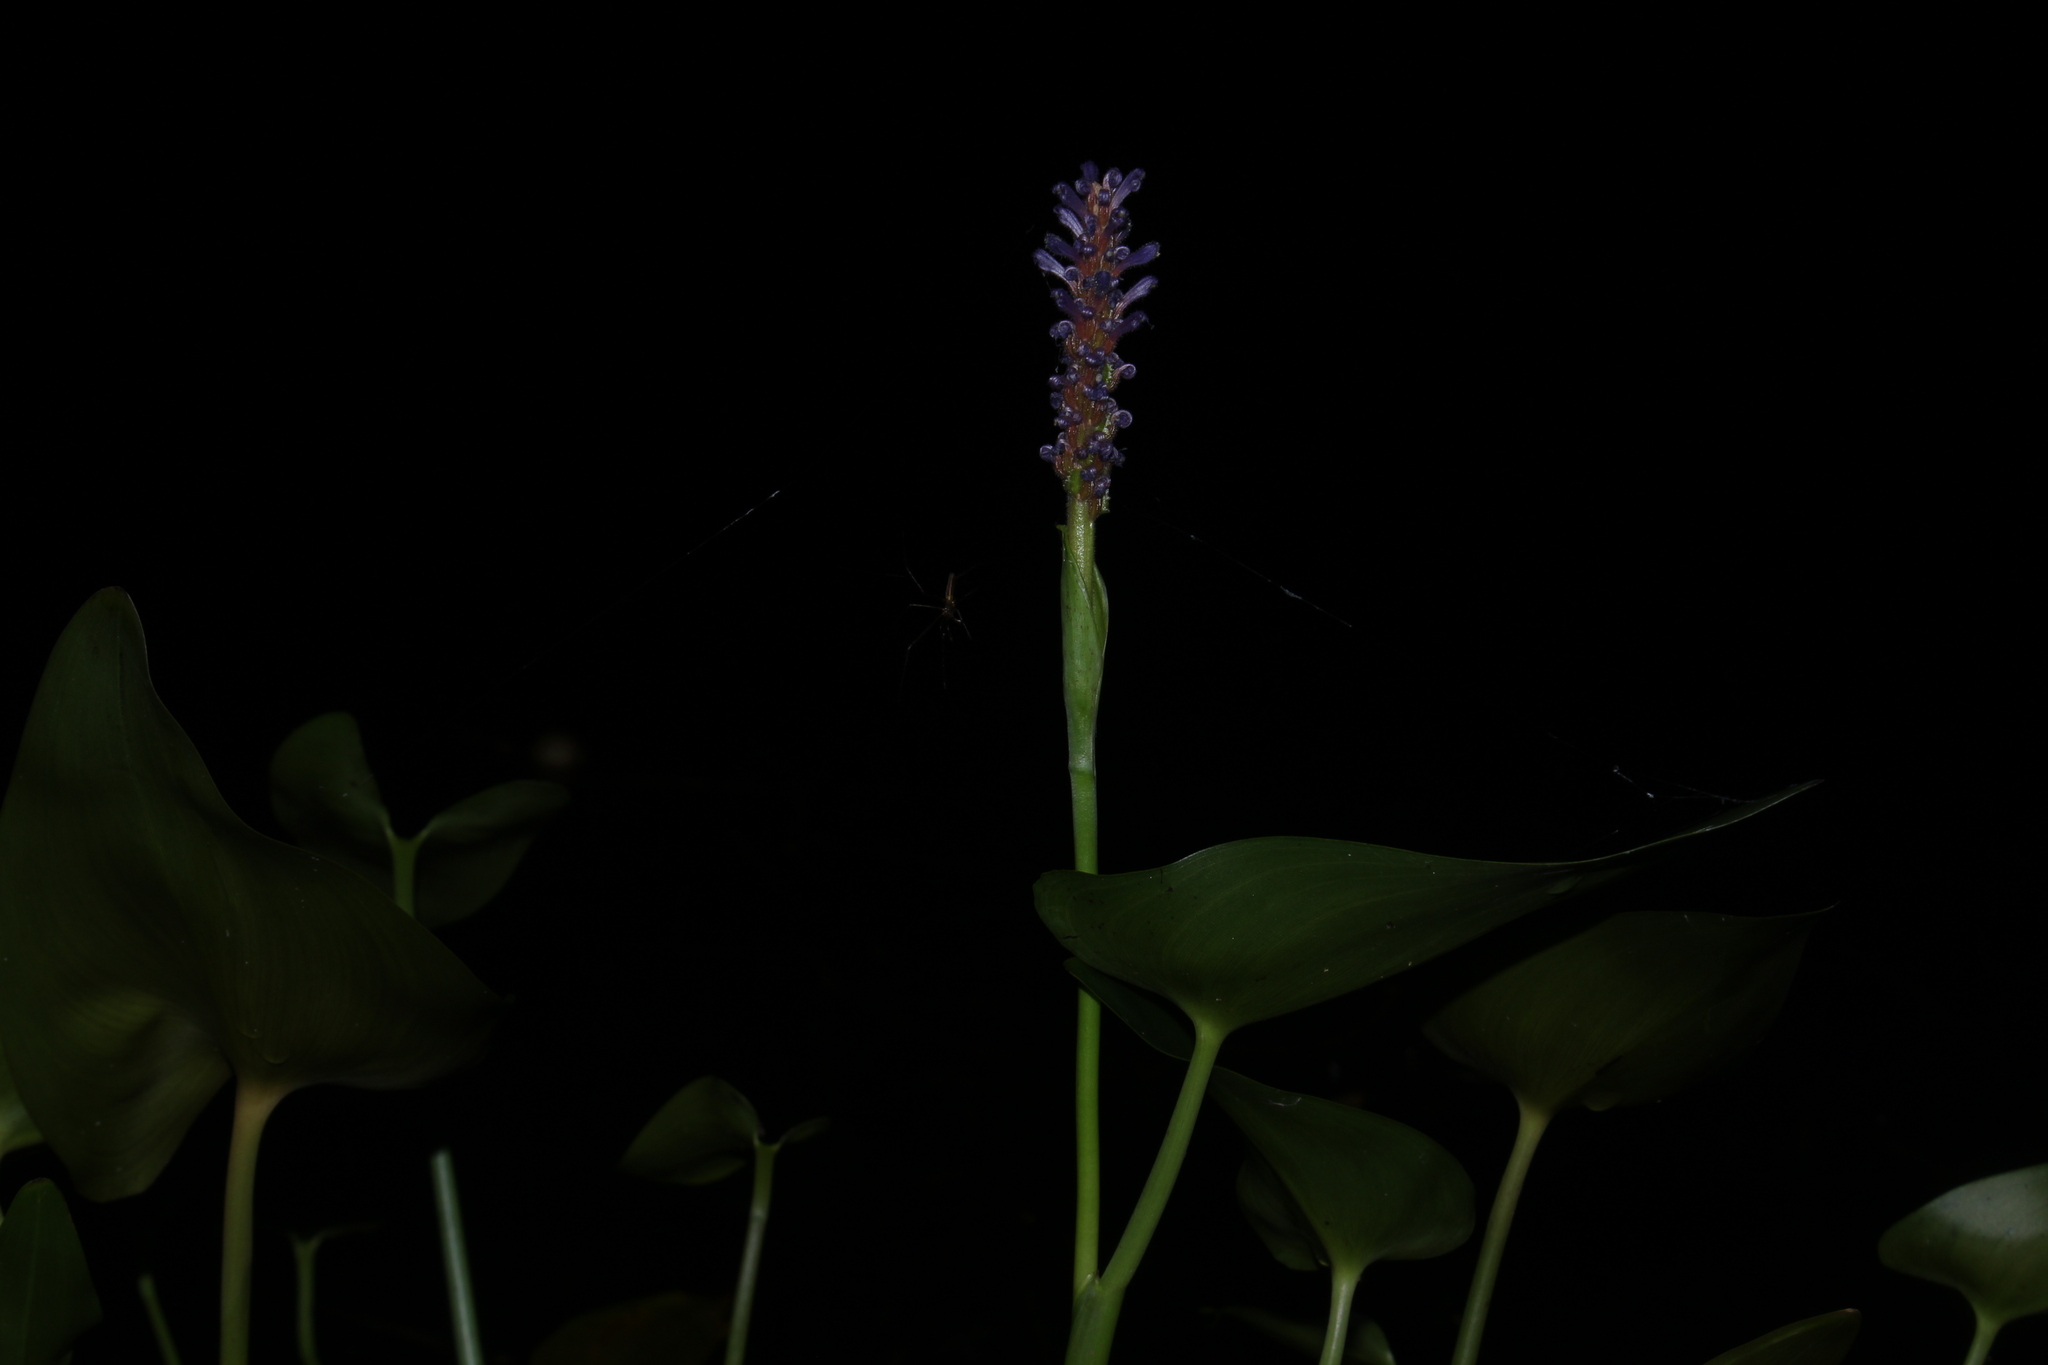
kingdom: Plantae
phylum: Tracheophyta
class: Liliopsida
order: Commelinales
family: Pontederiaceae
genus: Pontederia
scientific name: Pontederia cordata
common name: Pickerelweed
